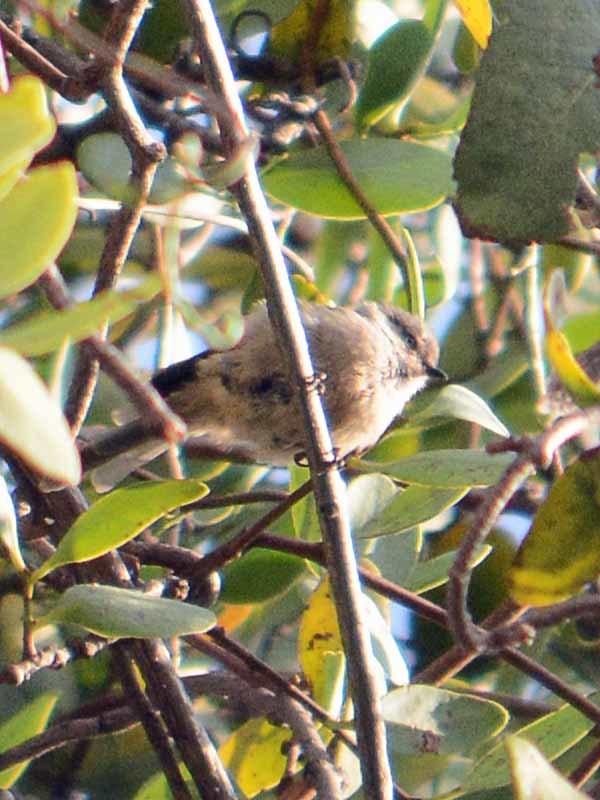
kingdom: Animalia
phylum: Chordata
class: Aves
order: Passeriformes
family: Aegithalidae
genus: Psaltriparus
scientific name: Psaltriparus minimus
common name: American bushtit
